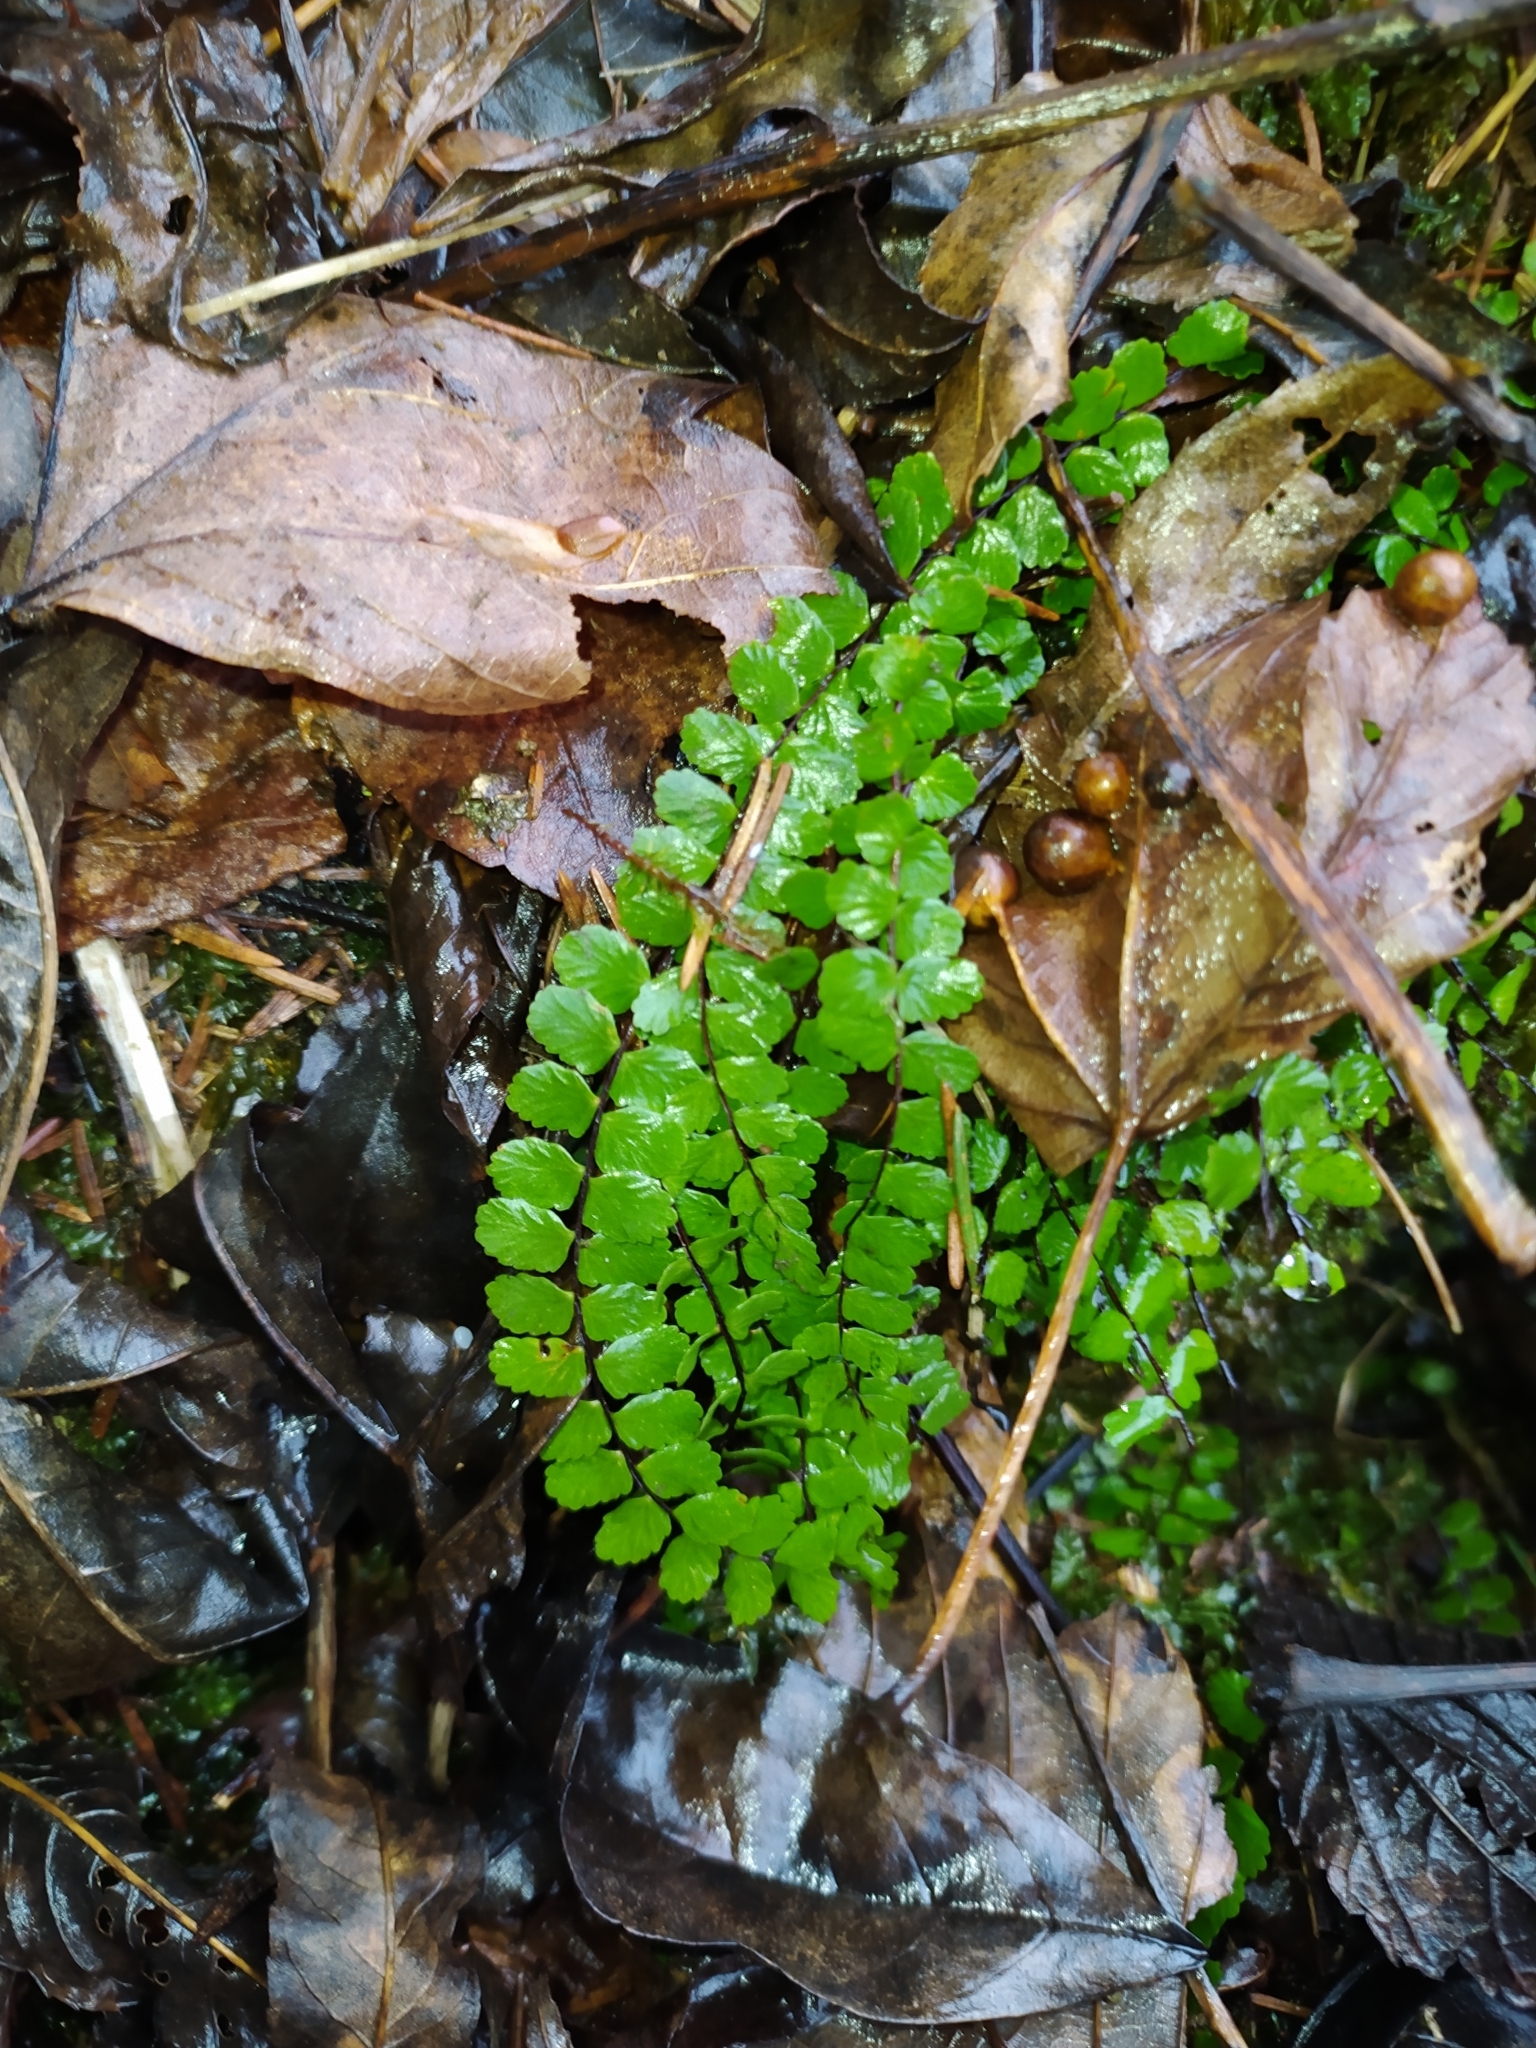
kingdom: Plantae
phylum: Tracheophyta
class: Polypodiopsida
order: Polypodiales
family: Aspleniaceae
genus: Asplenium
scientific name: Asplenium trichomanes
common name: Maidenhair spleenwort
